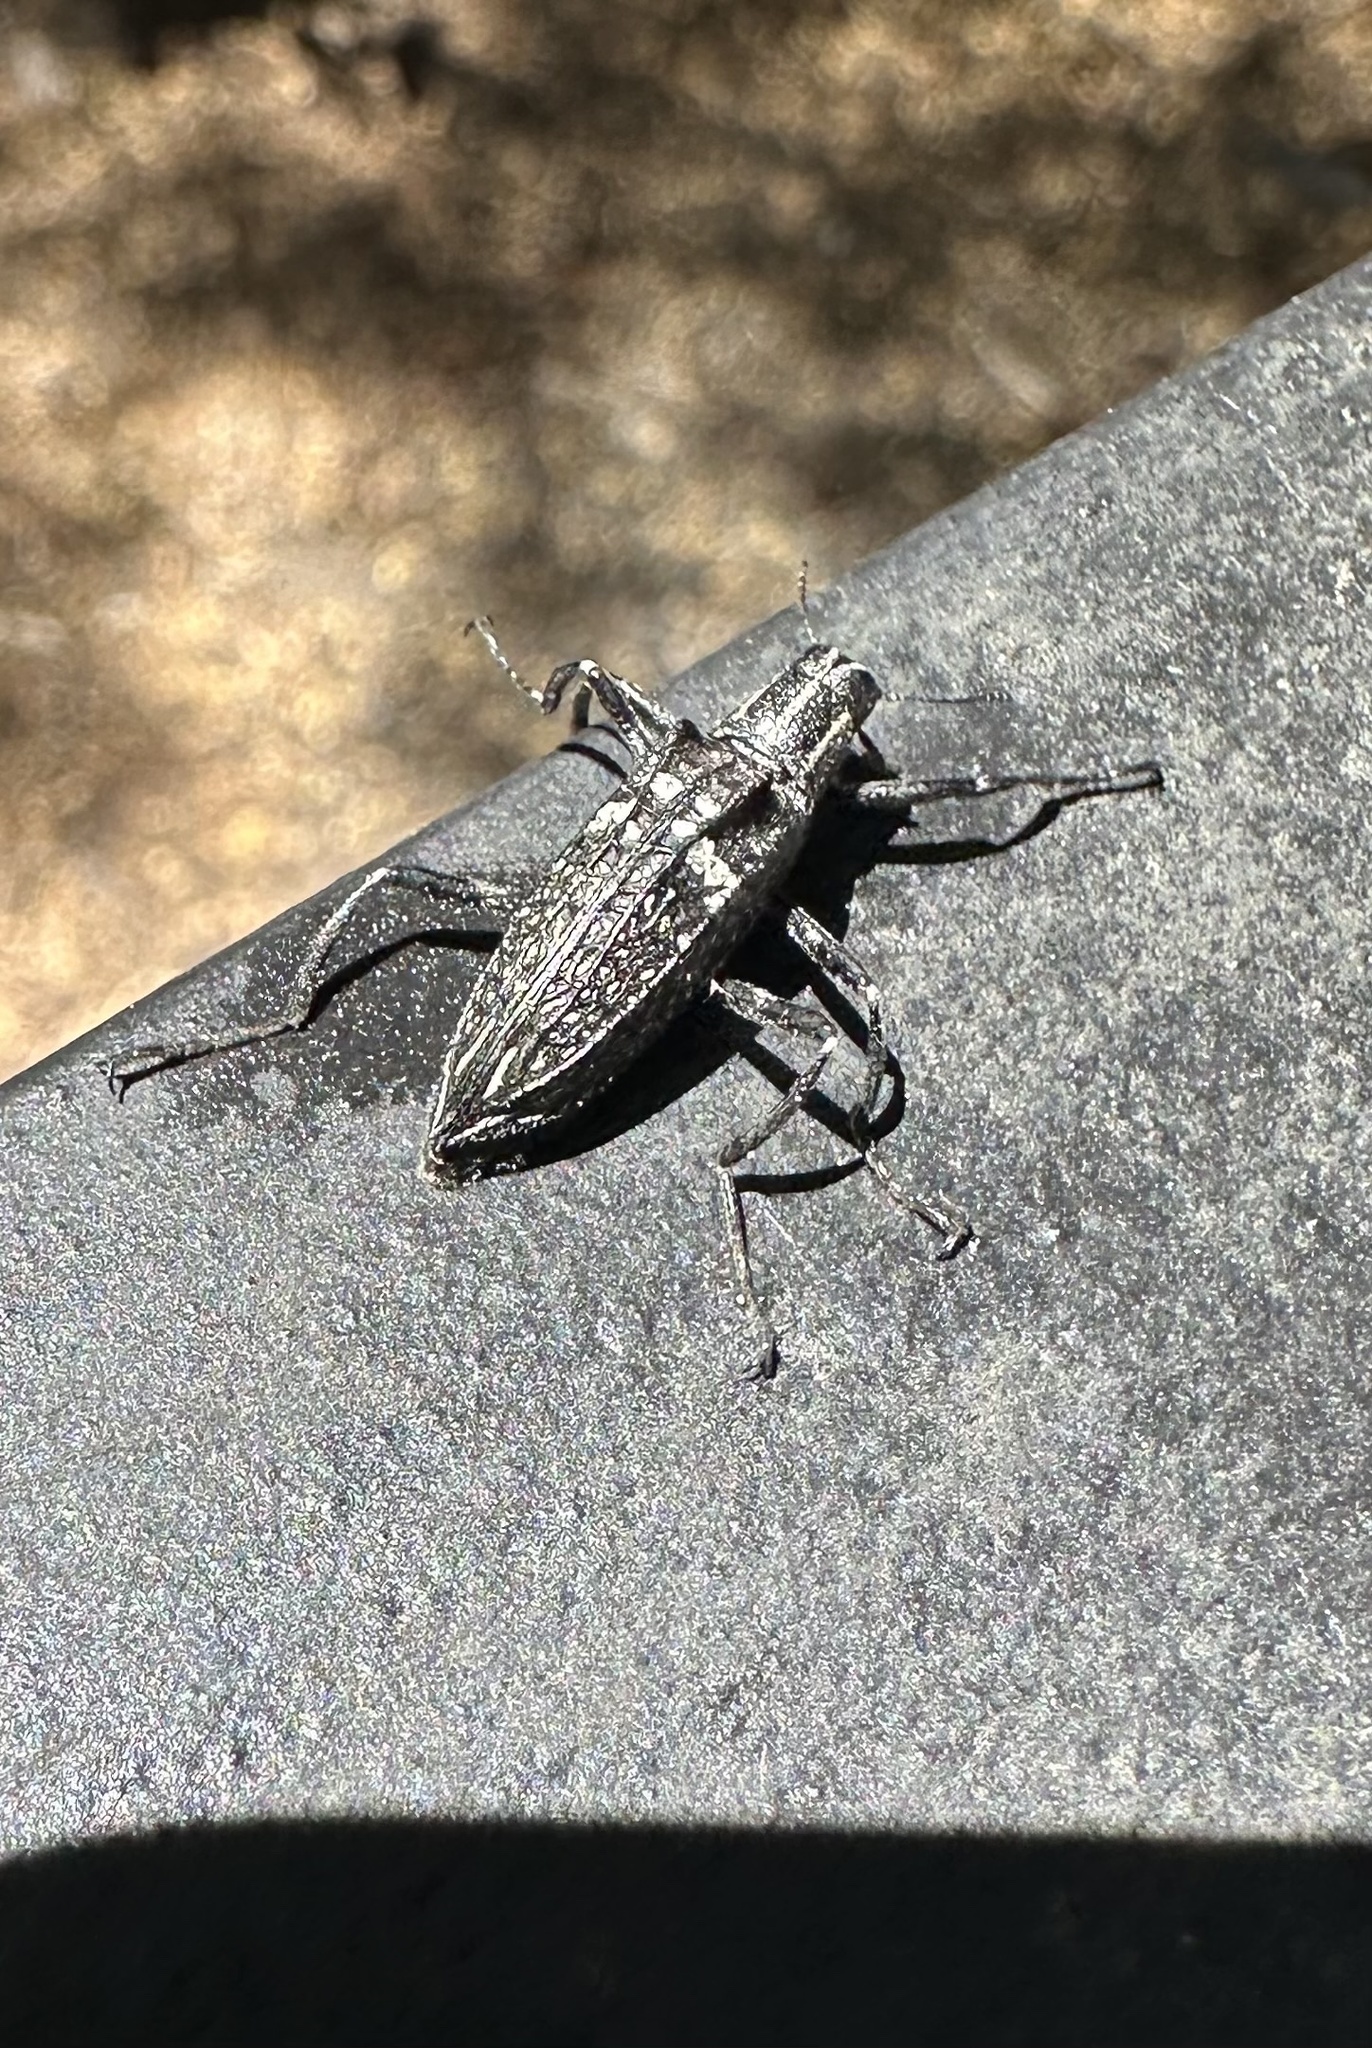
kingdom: Animalia
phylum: Arthropoda
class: Insecta
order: Coleoptera
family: Tenebrionidae
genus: Homocyrtus
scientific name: Homocyrtus
